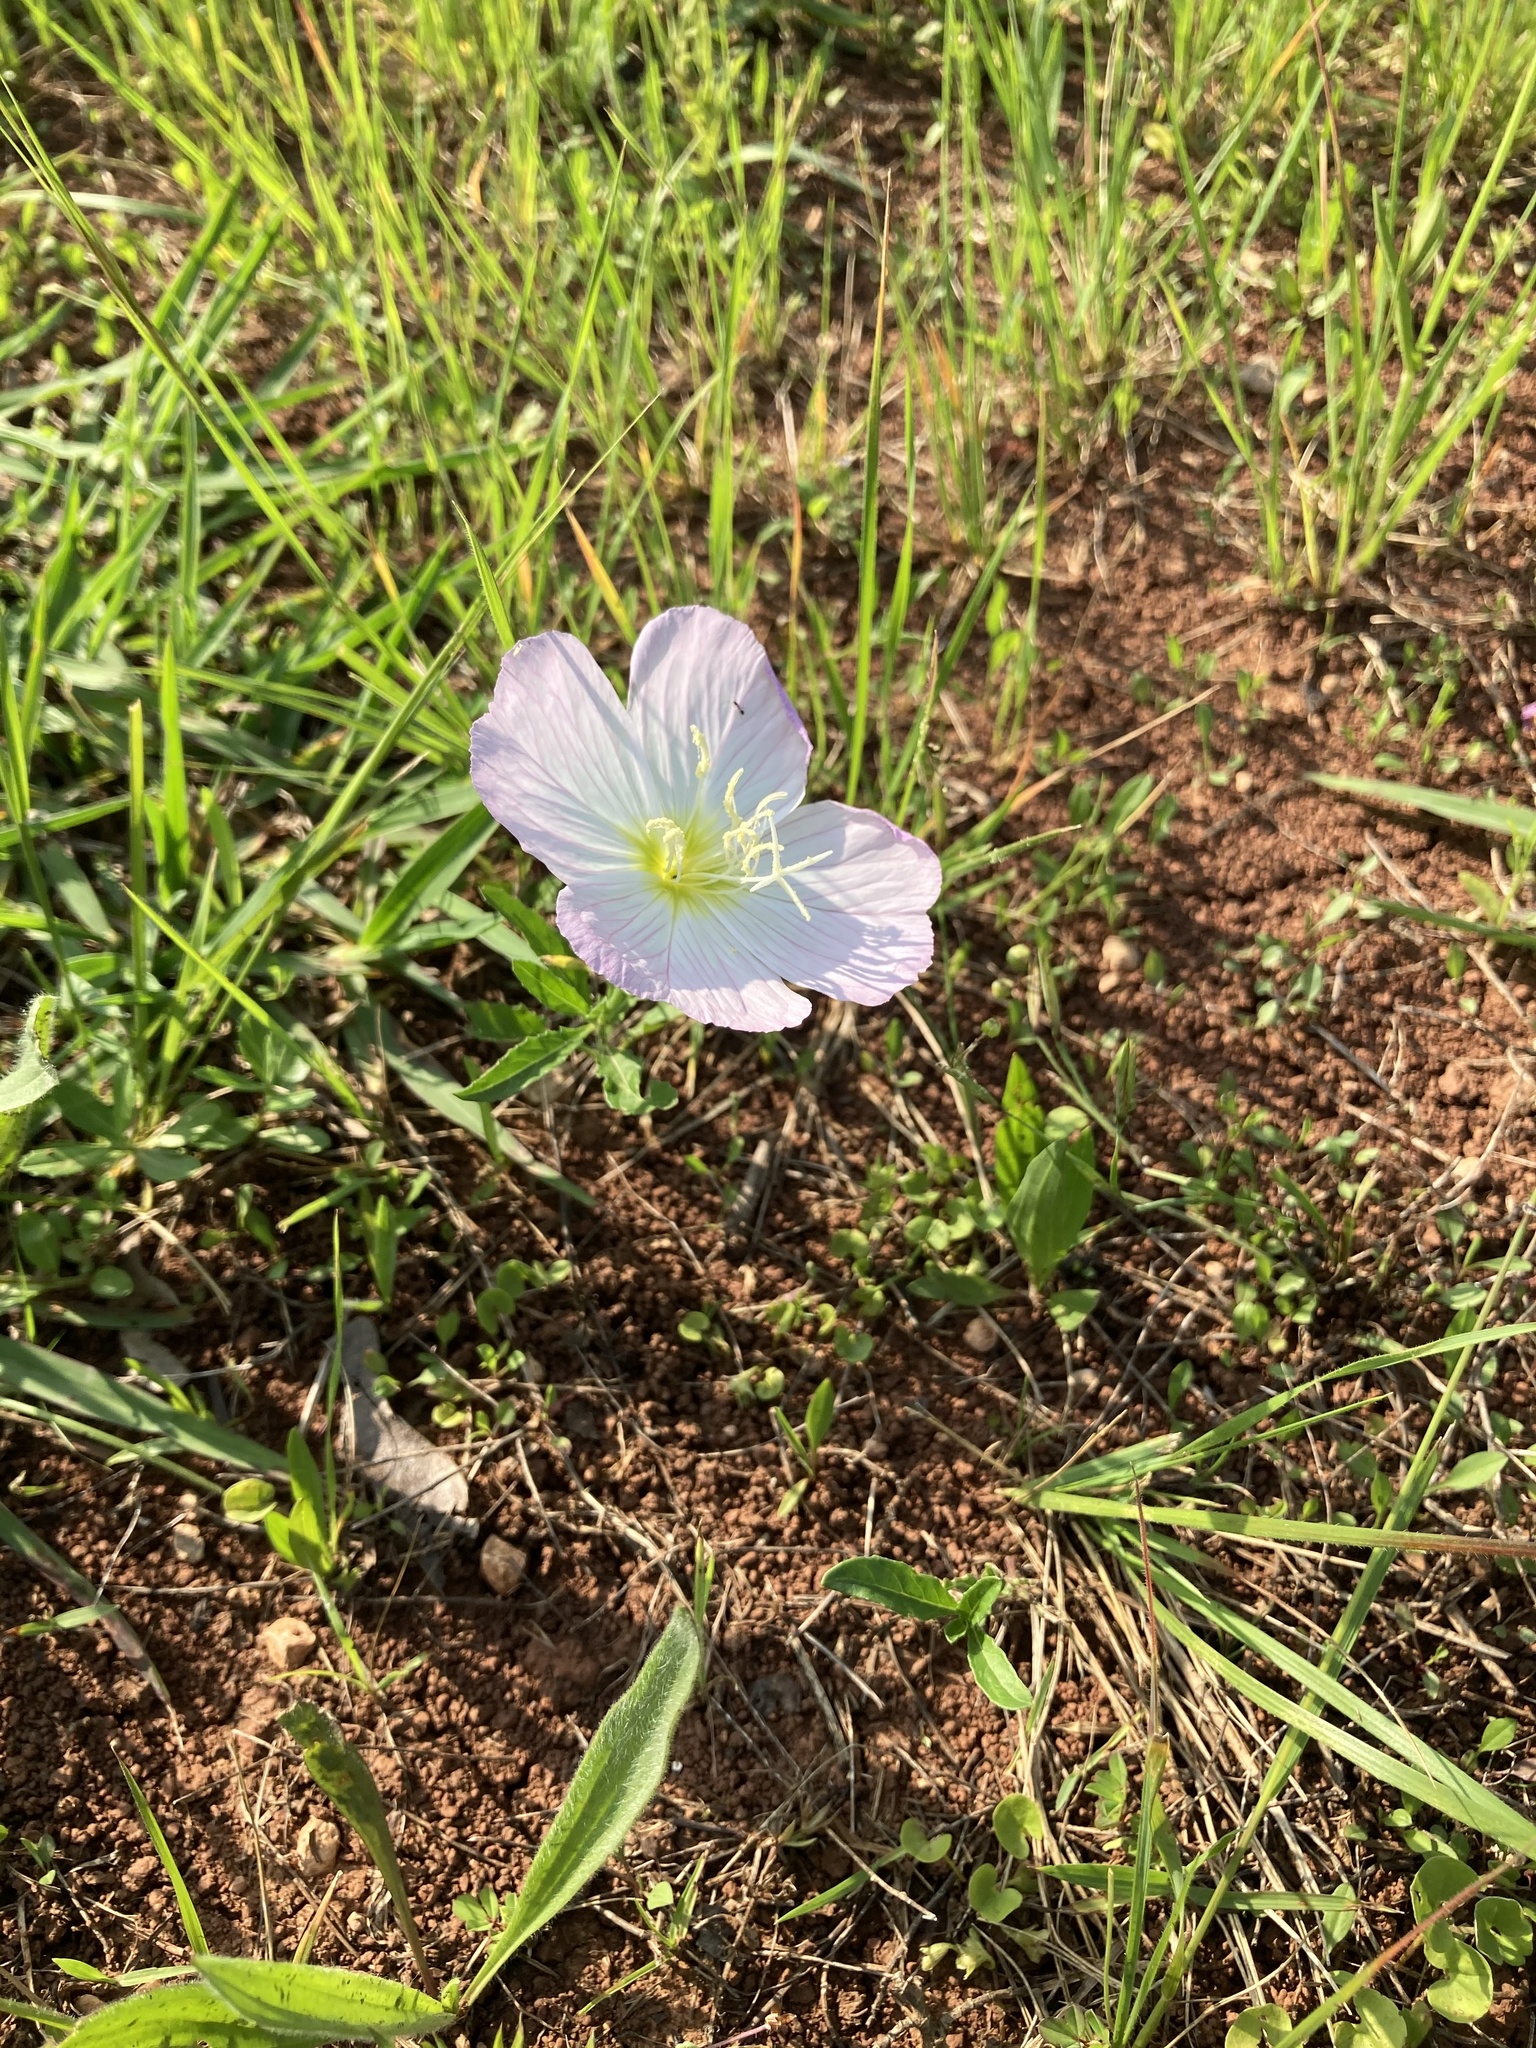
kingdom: Plantae
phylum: Tracheophyta
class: Magnoliopsida
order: Myrtales
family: Onagraceae
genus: Oenothera
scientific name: Oenothera speciosa
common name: White evening-primrose
